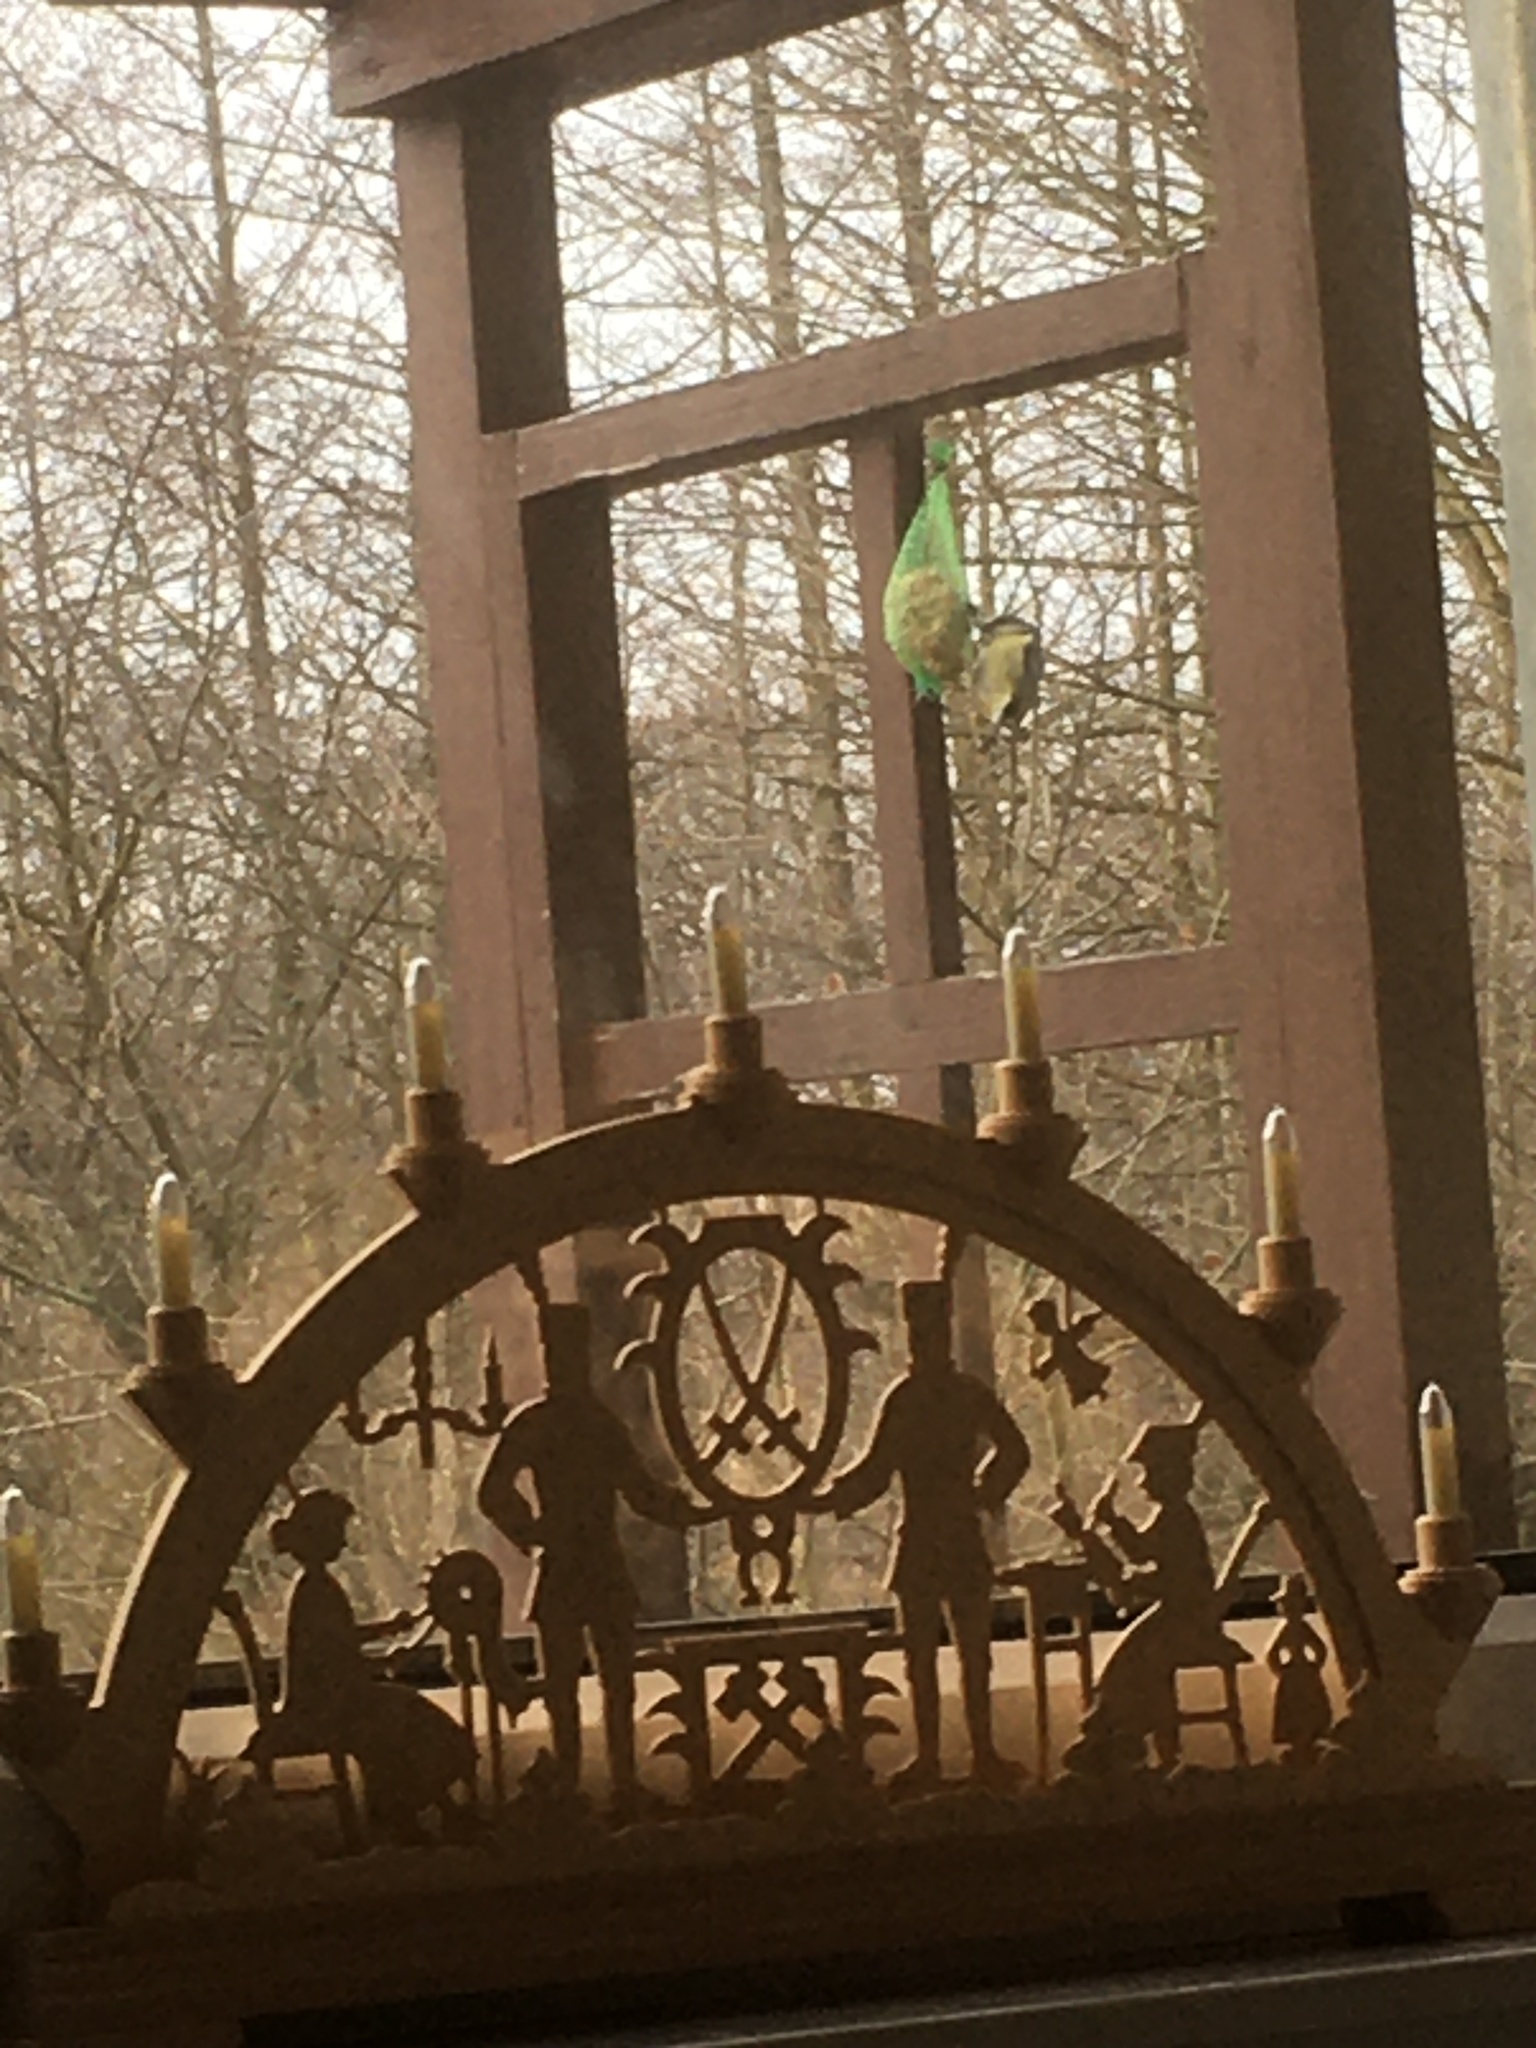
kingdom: Animalia
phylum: Chordata
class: Aves
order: Passeriformes
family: Paridae
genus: Parus
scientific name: Parus major
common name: Great tit
